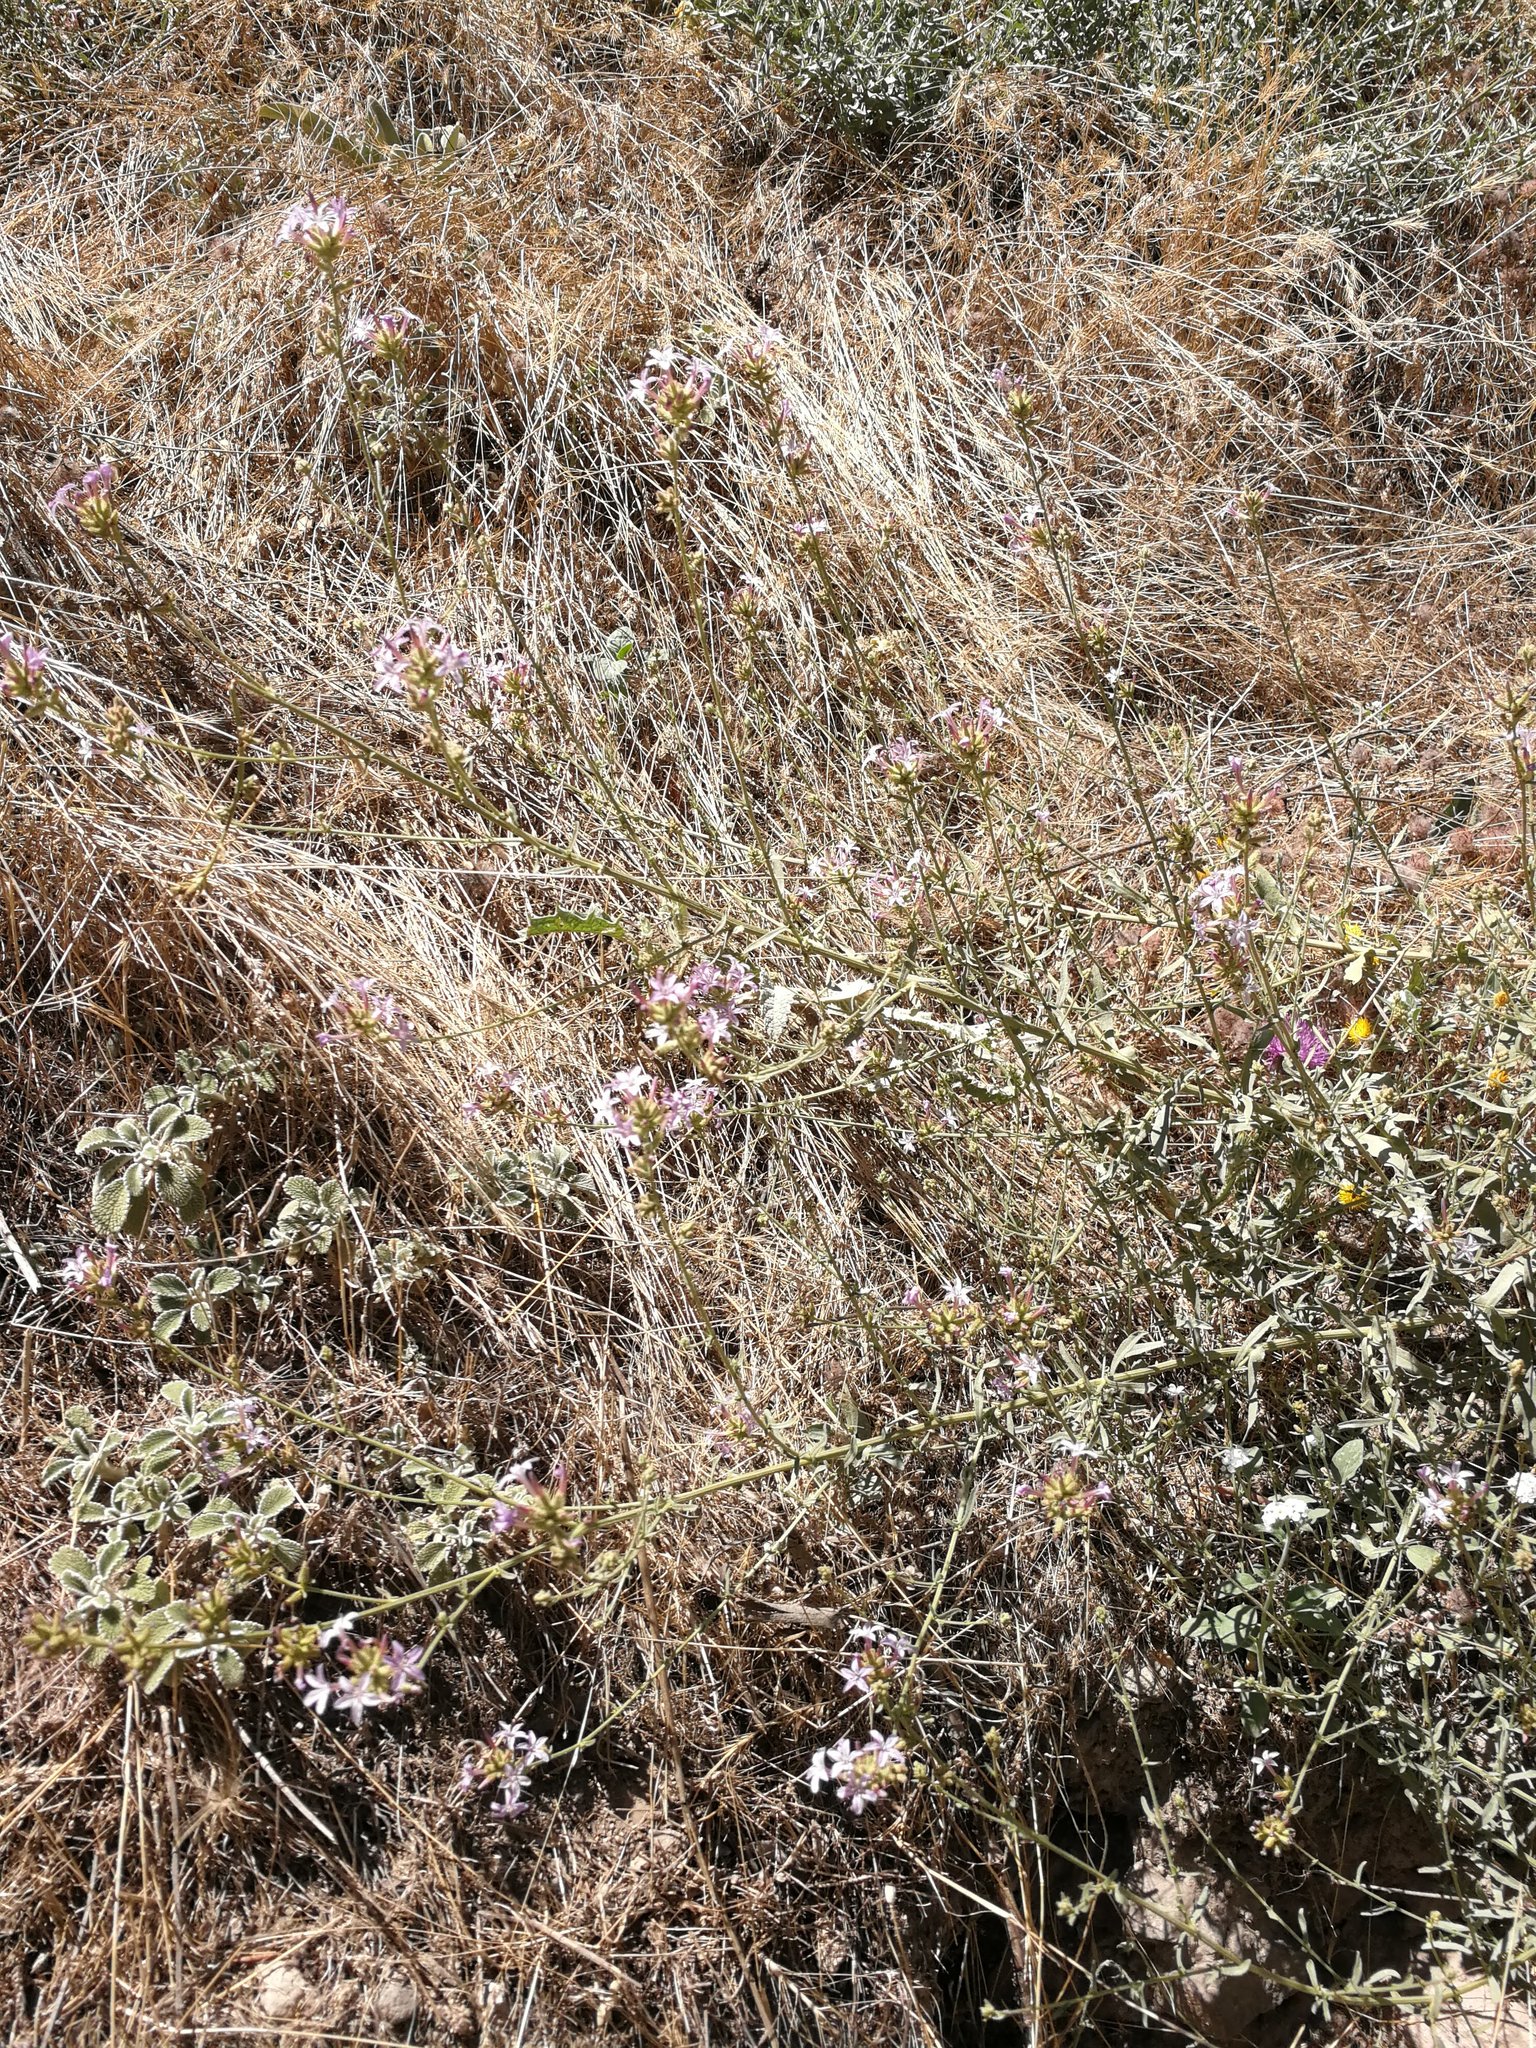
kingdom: Plantae
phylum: Tracheophyta
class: Magnoliopsida
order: Caryophyllales
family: Plumbaginaceae
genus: Plumbago
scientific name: Plumbago europaea
